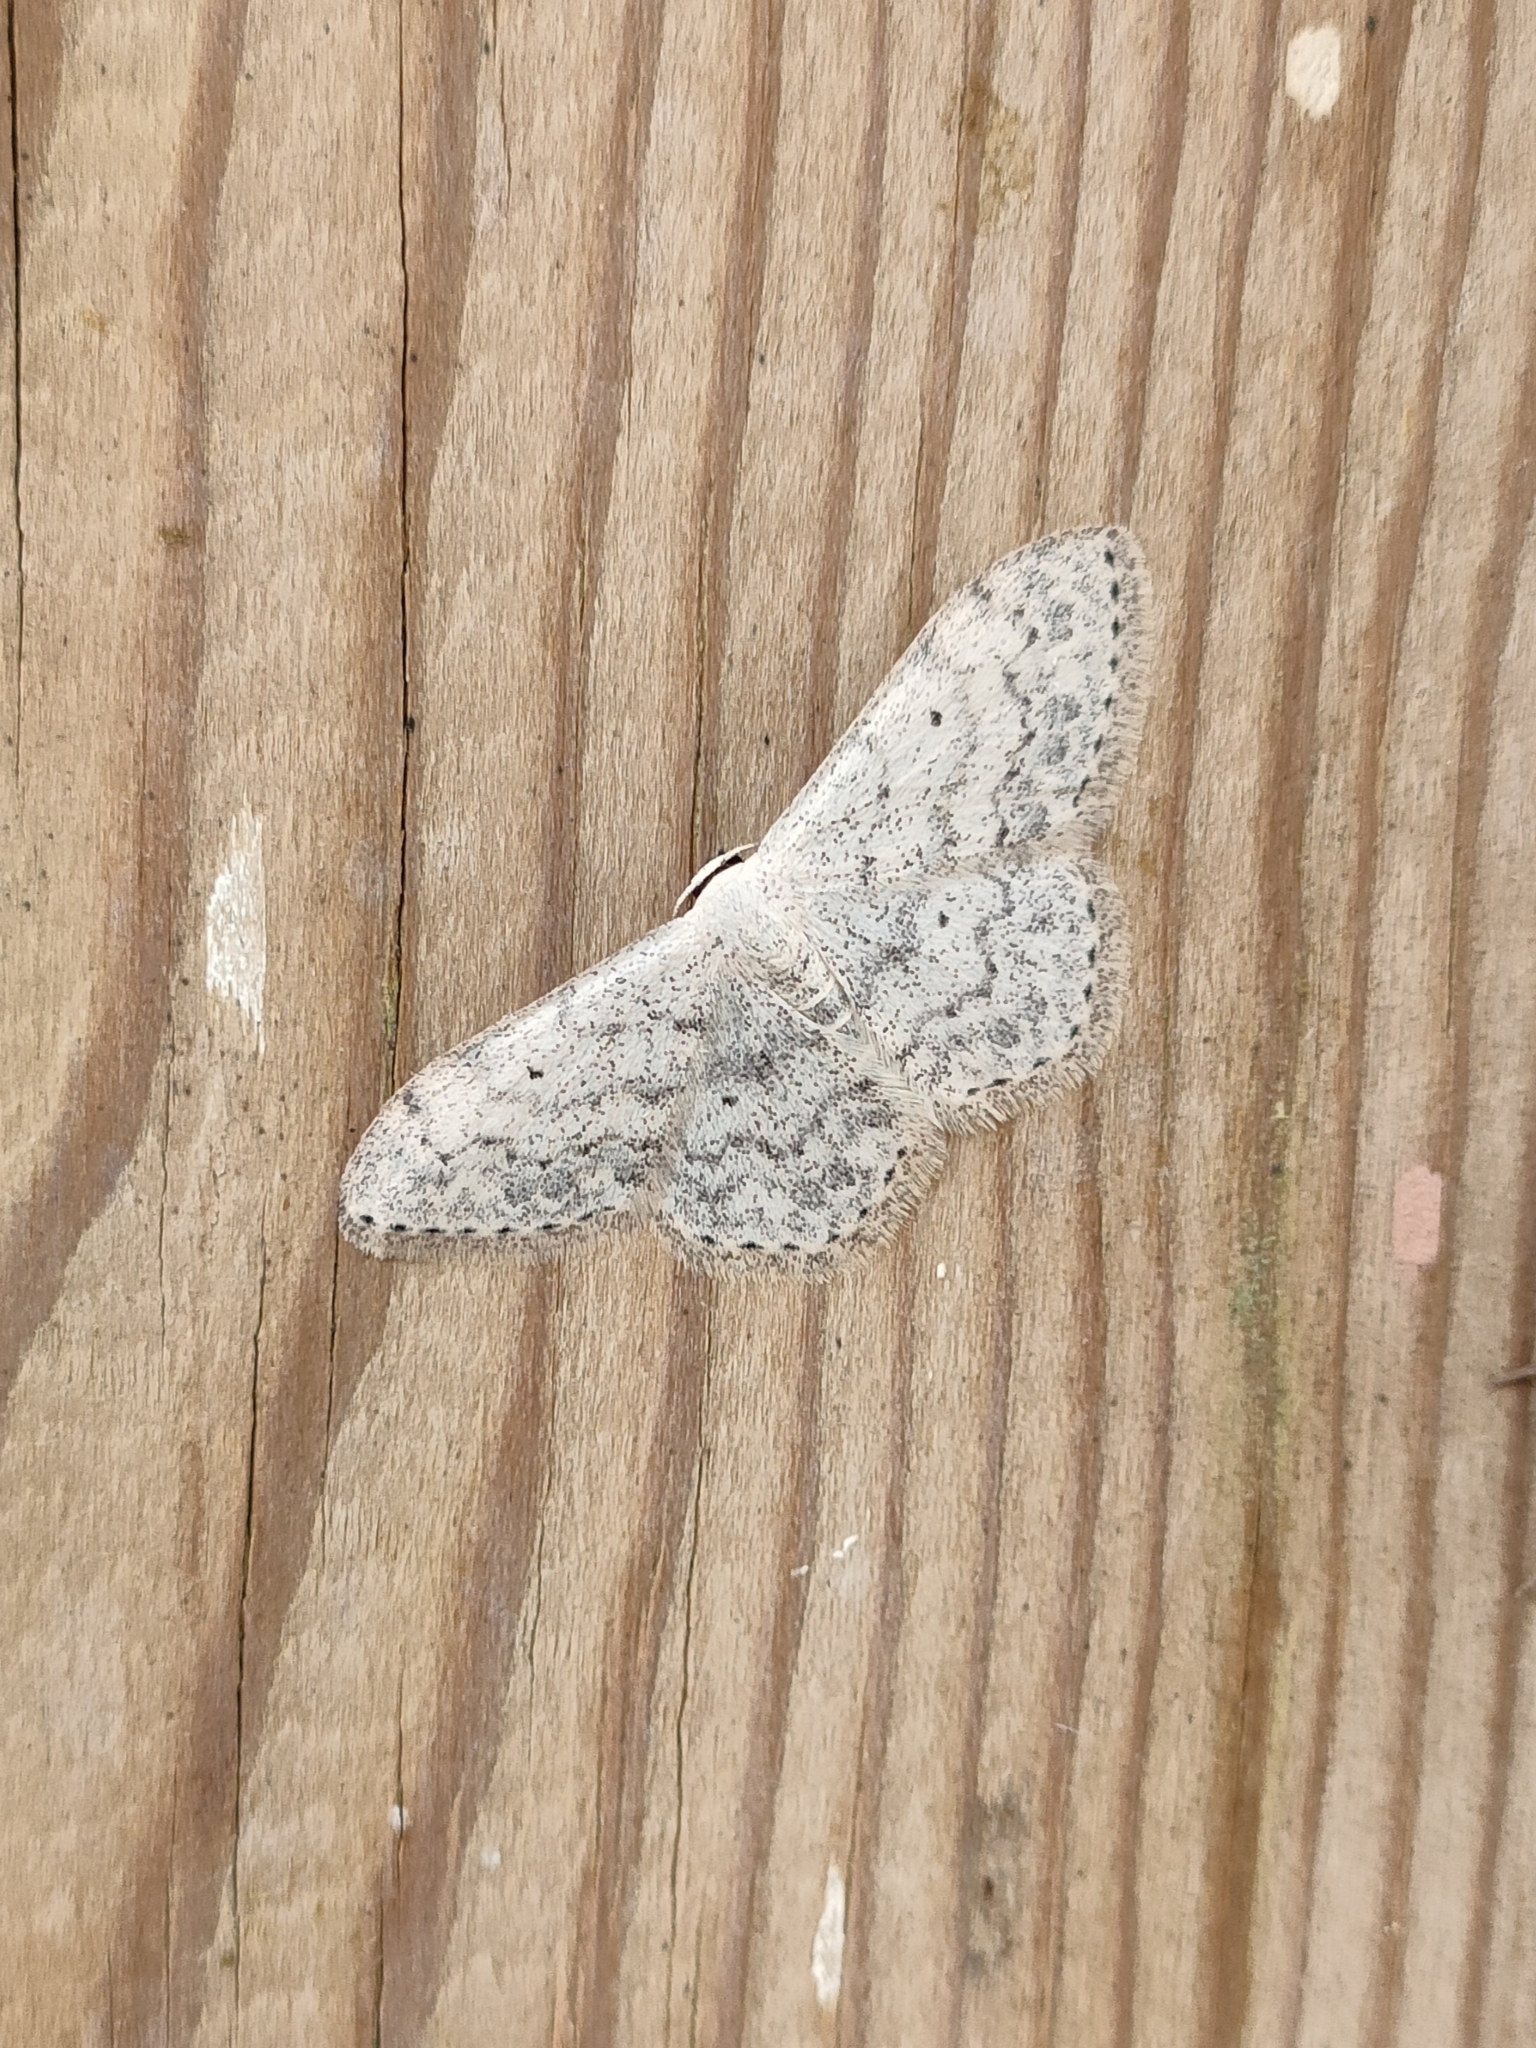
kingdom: Animalia
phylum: Arthropoda
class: Insecta
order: Lepidoptera
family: Geometridae
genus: Scopula
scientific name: Scopula marginepunctata
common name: Mullein wave
